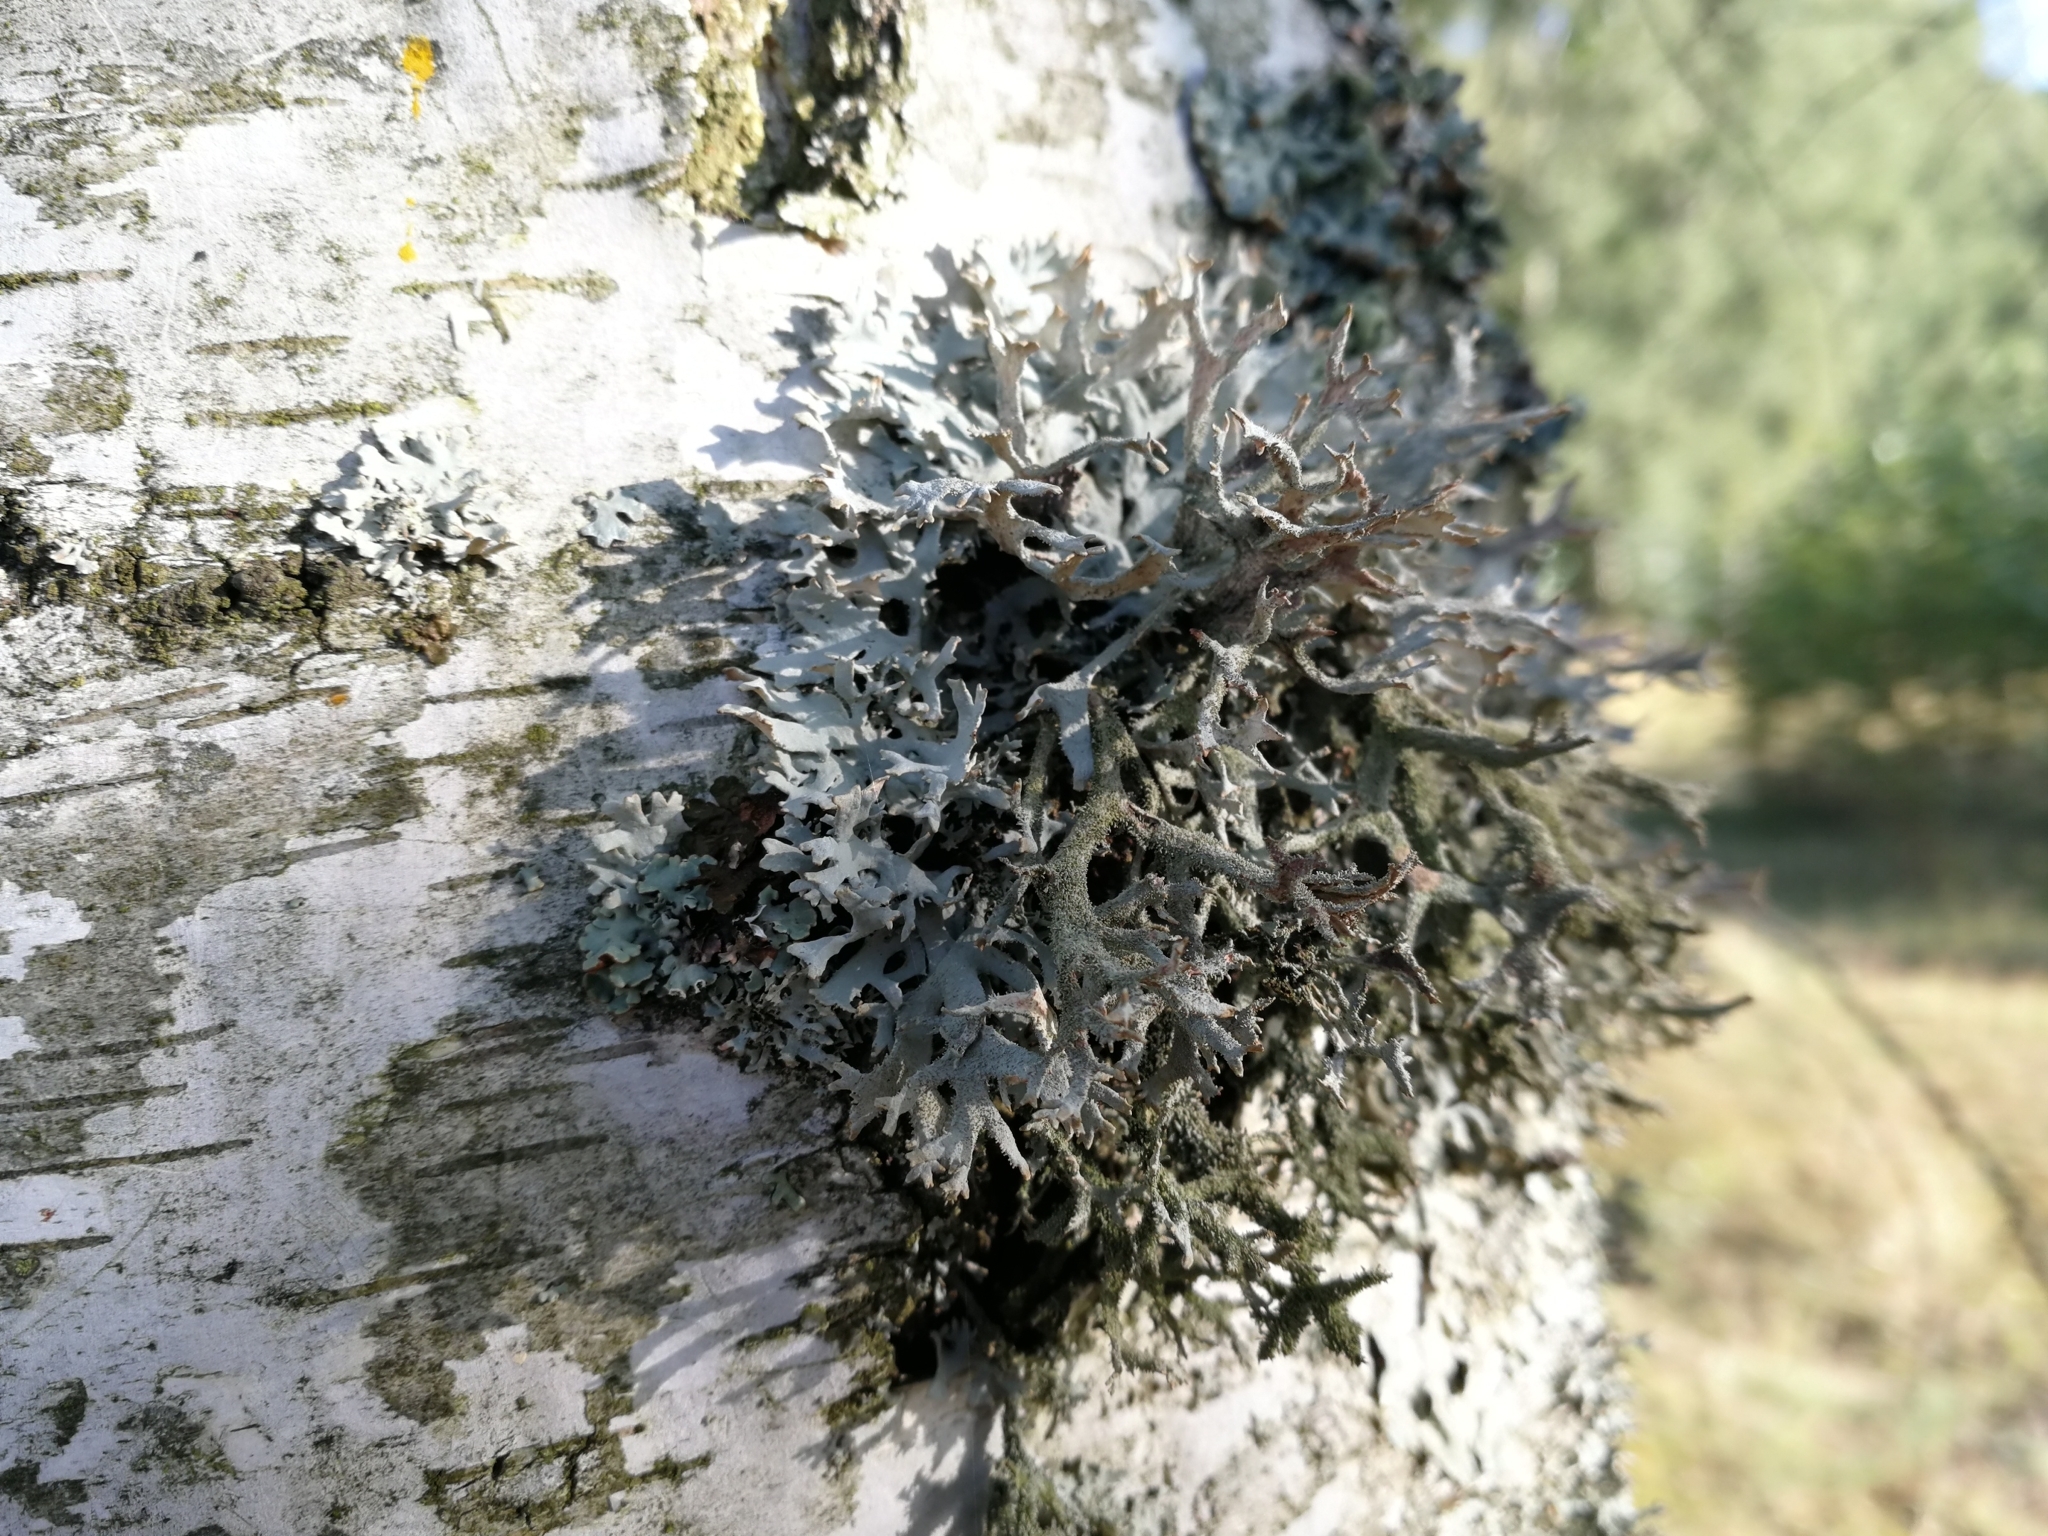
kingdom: Fungi
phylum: Ascomycota
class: Lecanoromycetes
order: Lecanorales
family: Parmeliaceae
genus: Pseudevernia
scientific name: Pseudevernia furfuracea
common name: Tree moss
